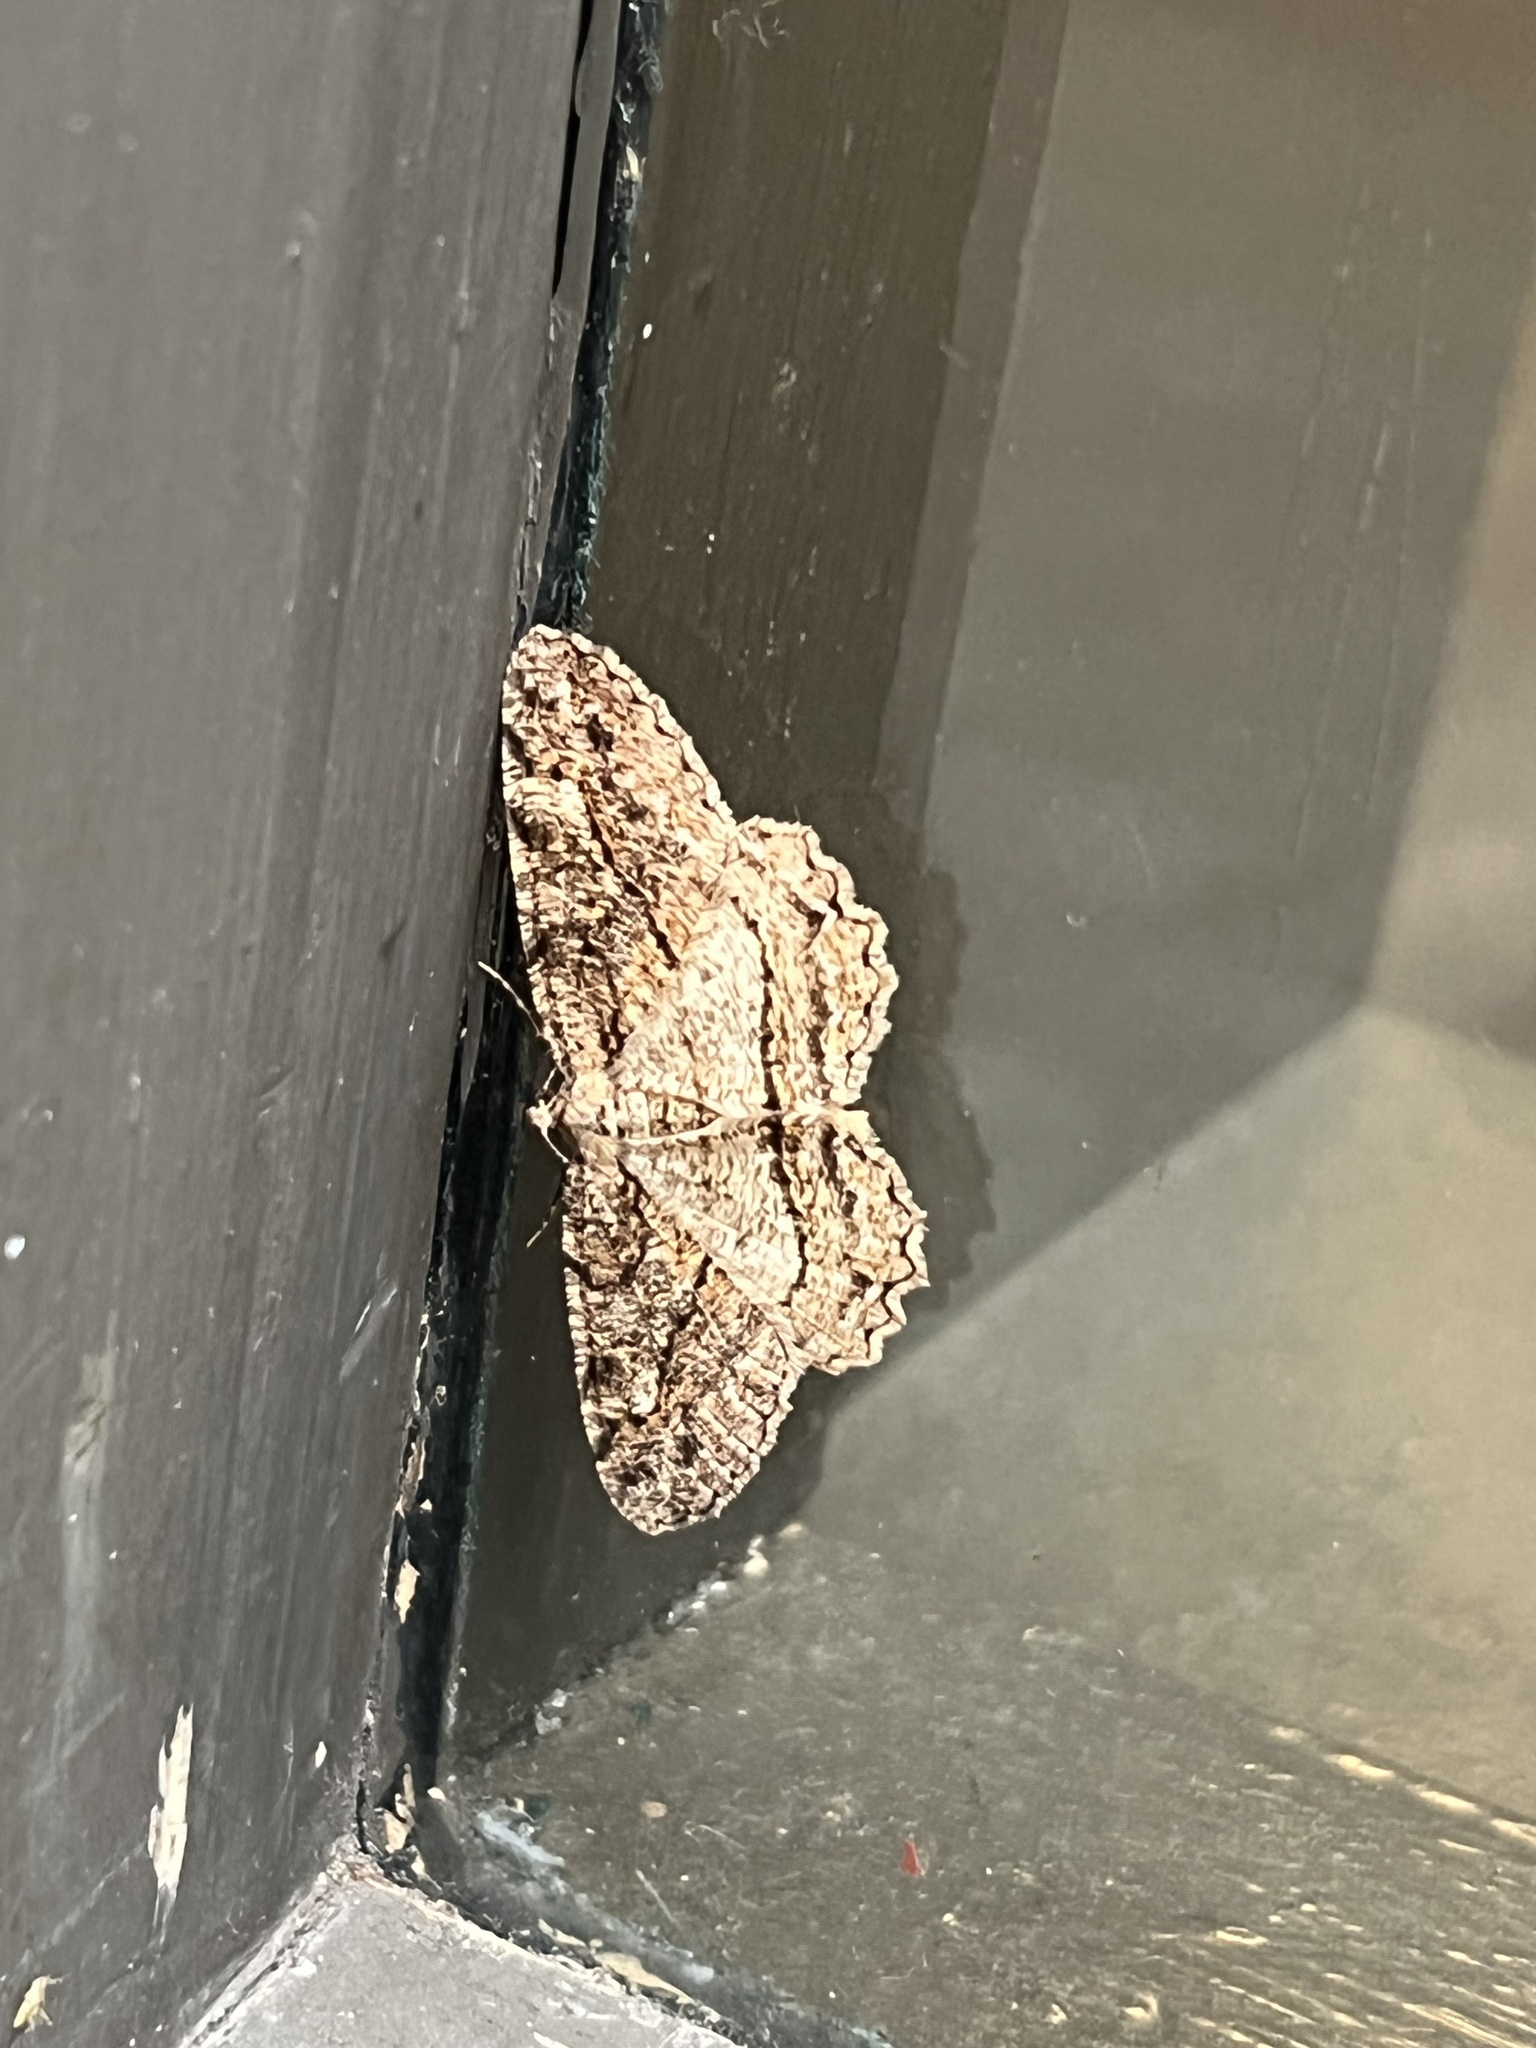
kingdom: Animalia
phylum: Arthropoda
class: Insecta
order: Lepidoptera
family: Geometridae
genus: Neoalcis
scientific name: Neoalcis californiaria
